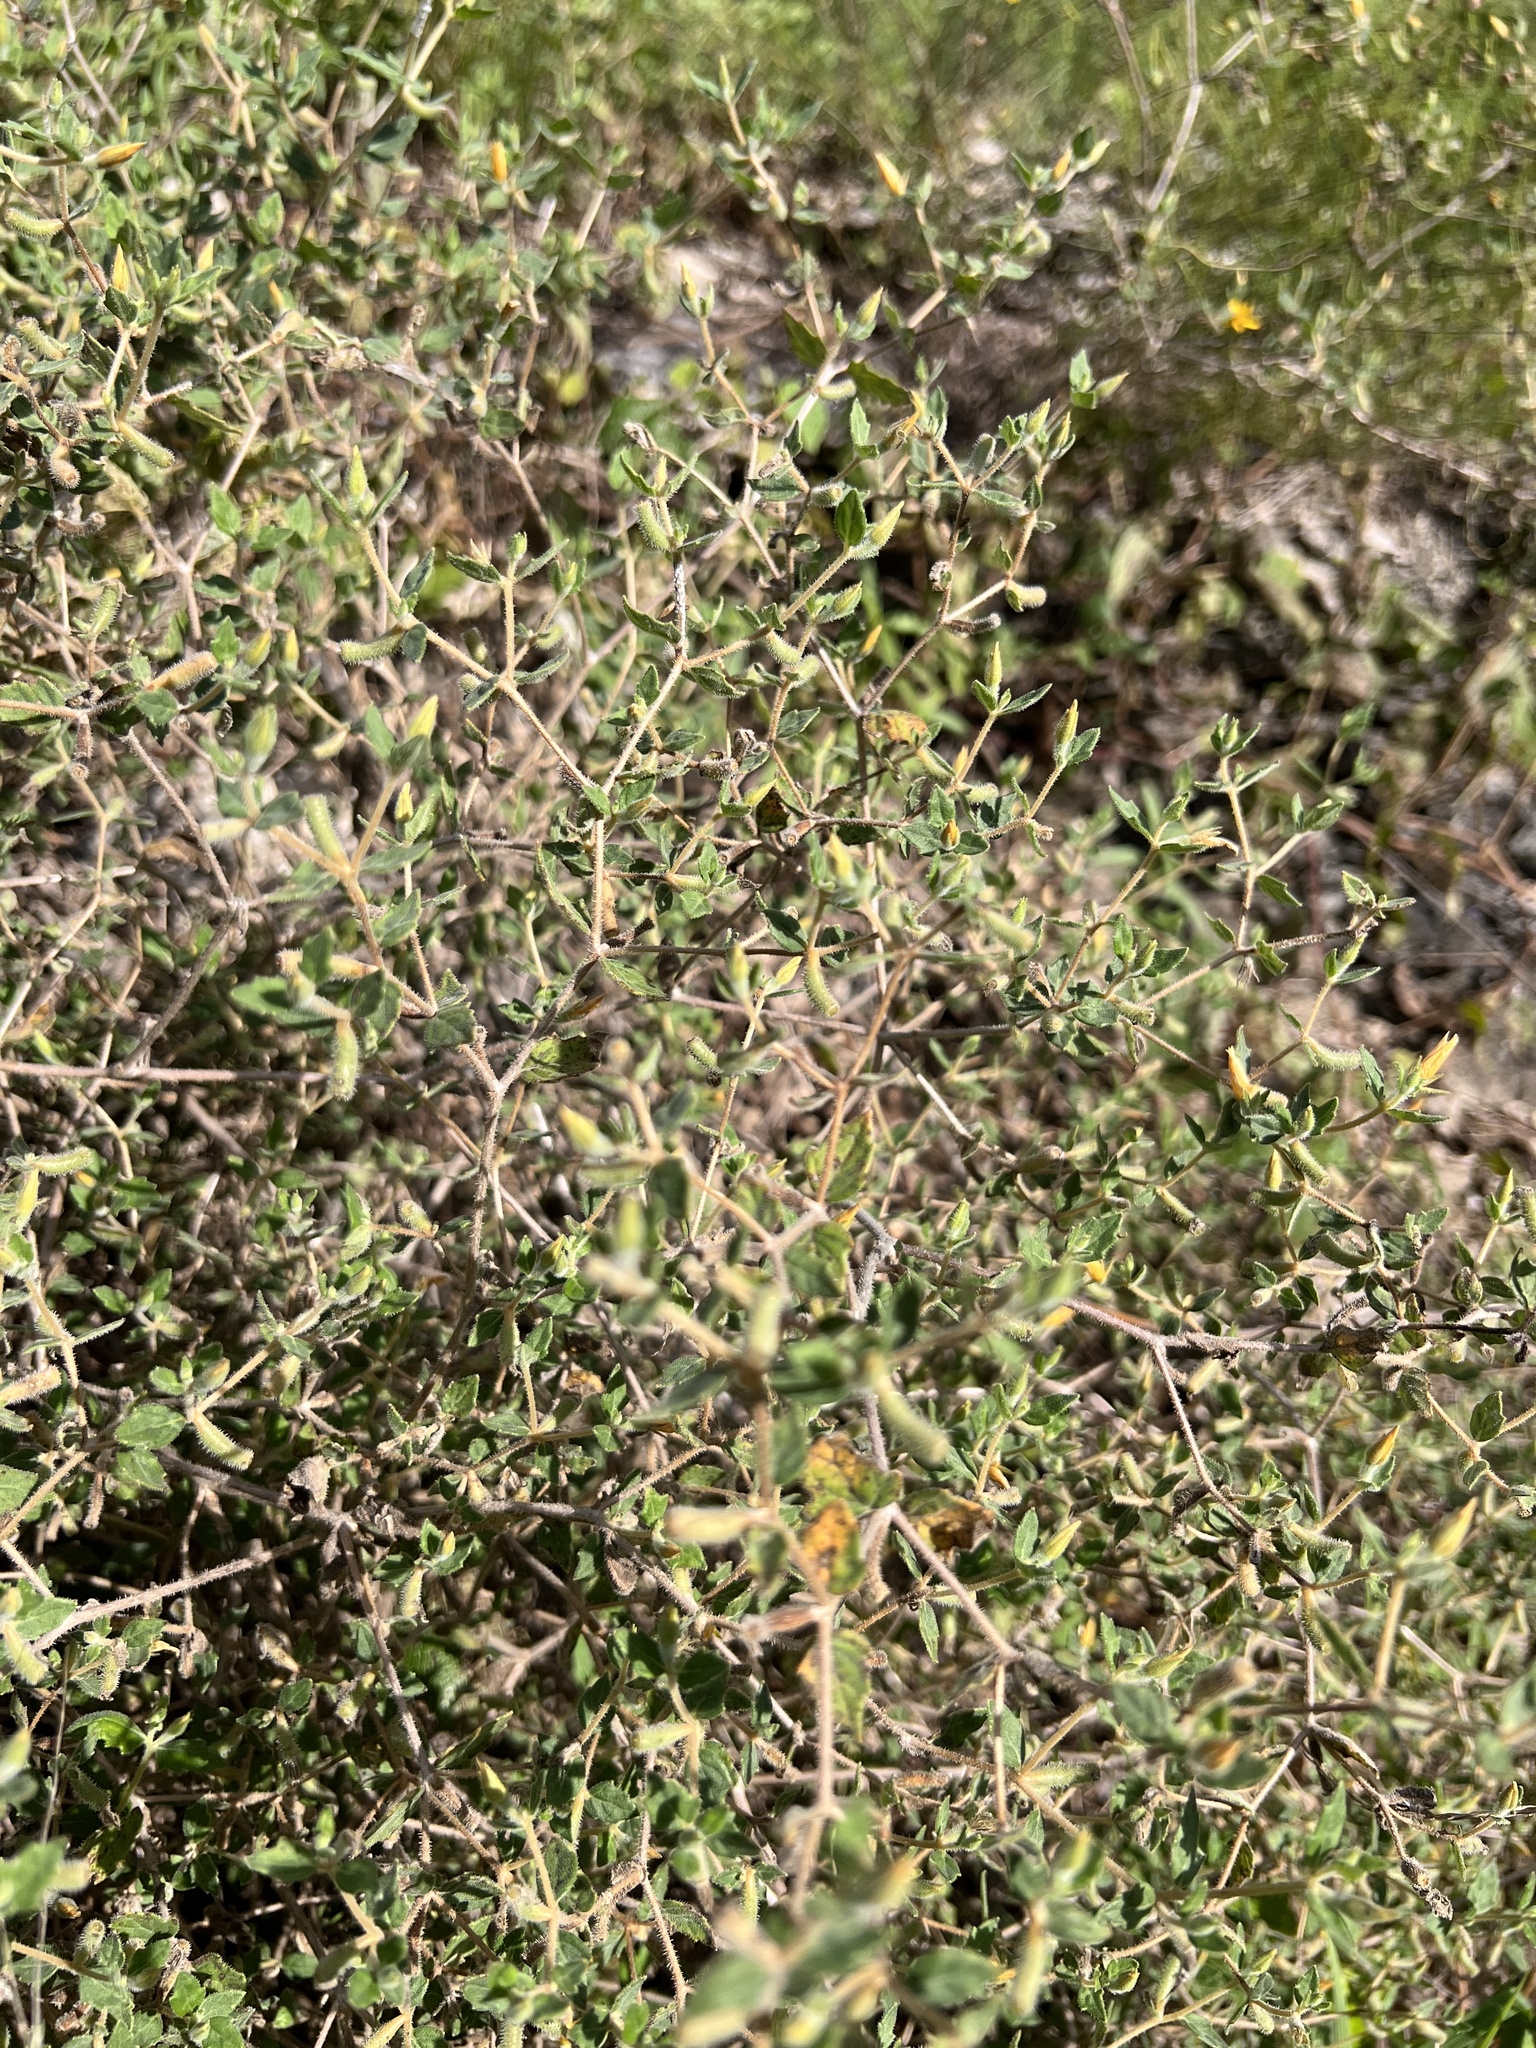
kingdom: Plantae
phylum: Tracheophyta
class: Magnoliopsida
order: Cornales
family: Loasaceae
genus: Mentzelia
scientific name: Mentzelia oligosperma
